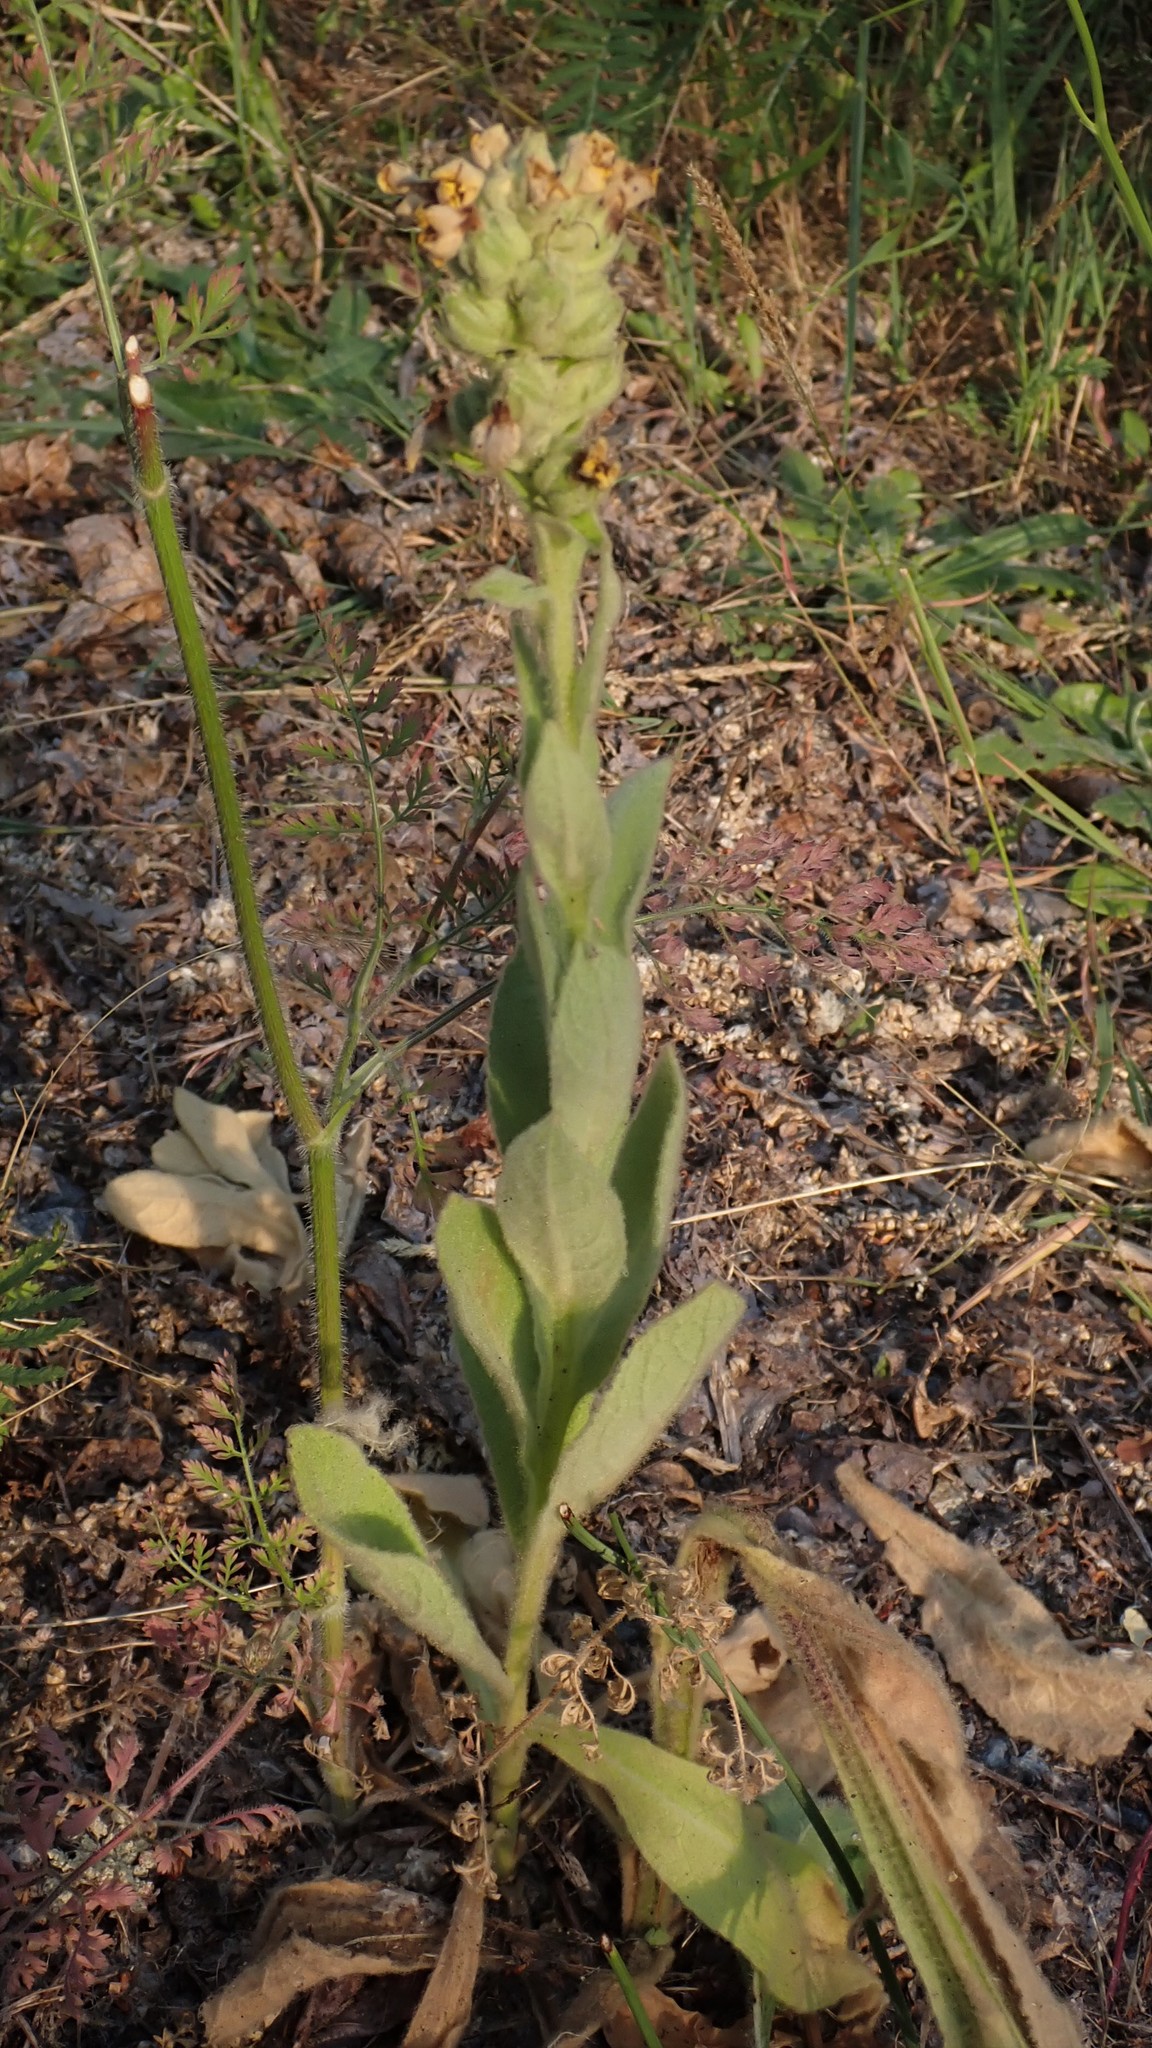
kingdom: Plantae
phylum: Tracheophyta
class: Magnoliopsida
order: Lamiales
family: Scrophulariaceae
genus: Verbascum
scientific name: Verbascum thapsus
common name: Common mullein
